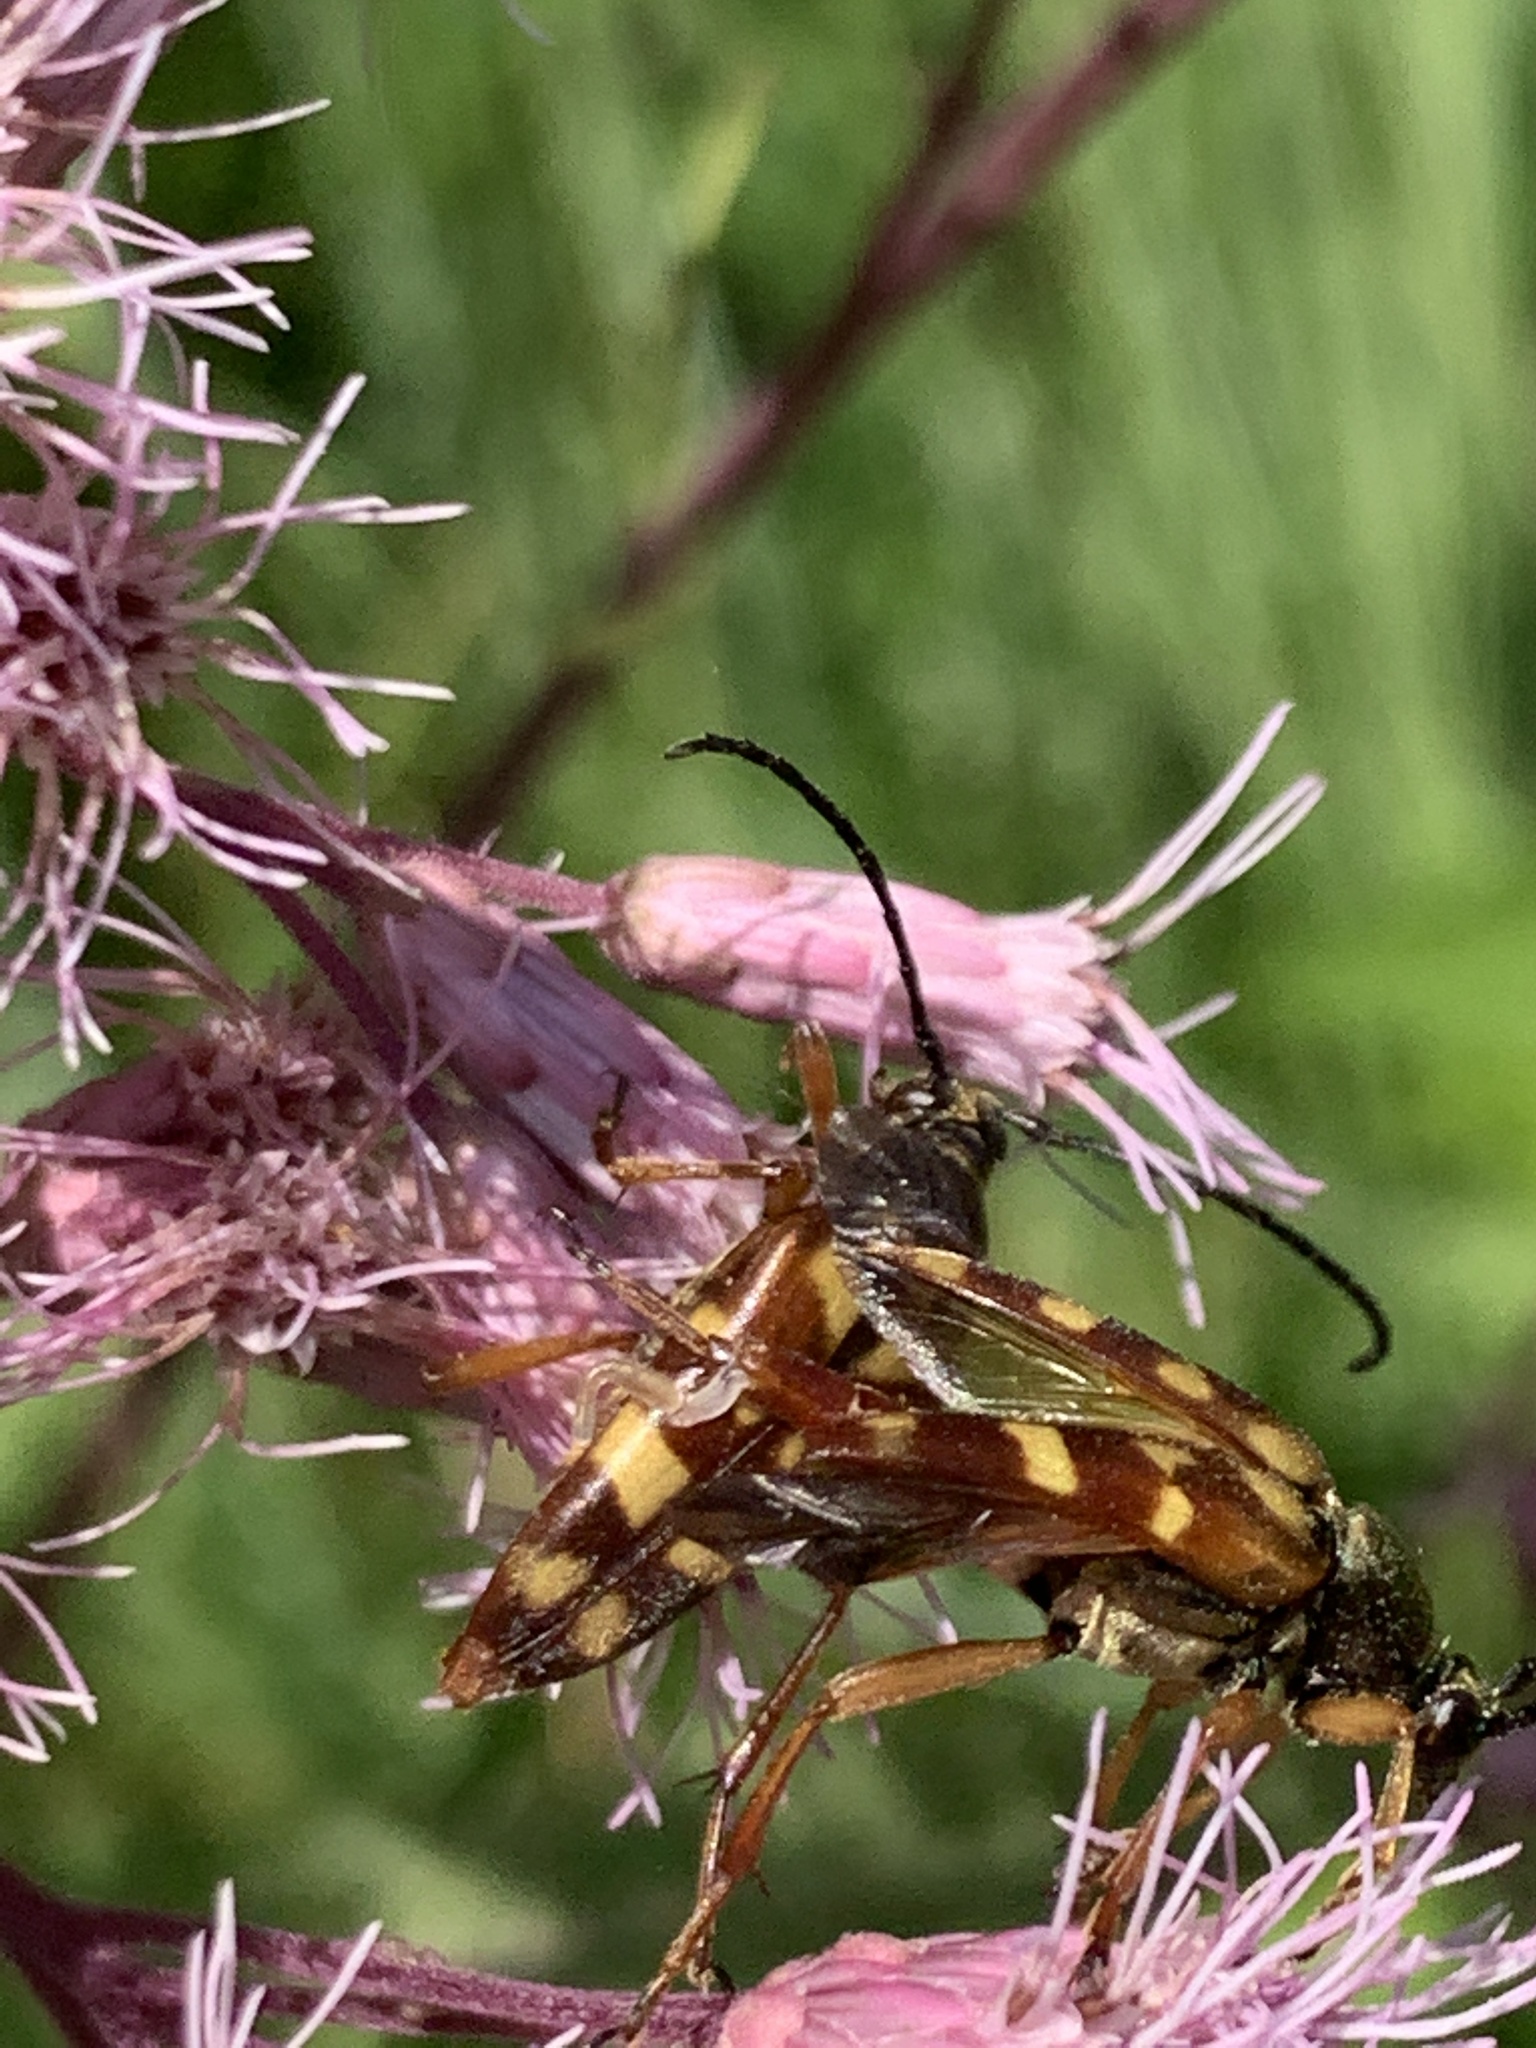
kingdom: Animalia
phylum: Arthropoda
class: Insecta
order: Coleoptera
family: Cerambycidae
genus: Typocerus
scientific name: Typocerus velutinus
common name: Banded longhorn beetle
